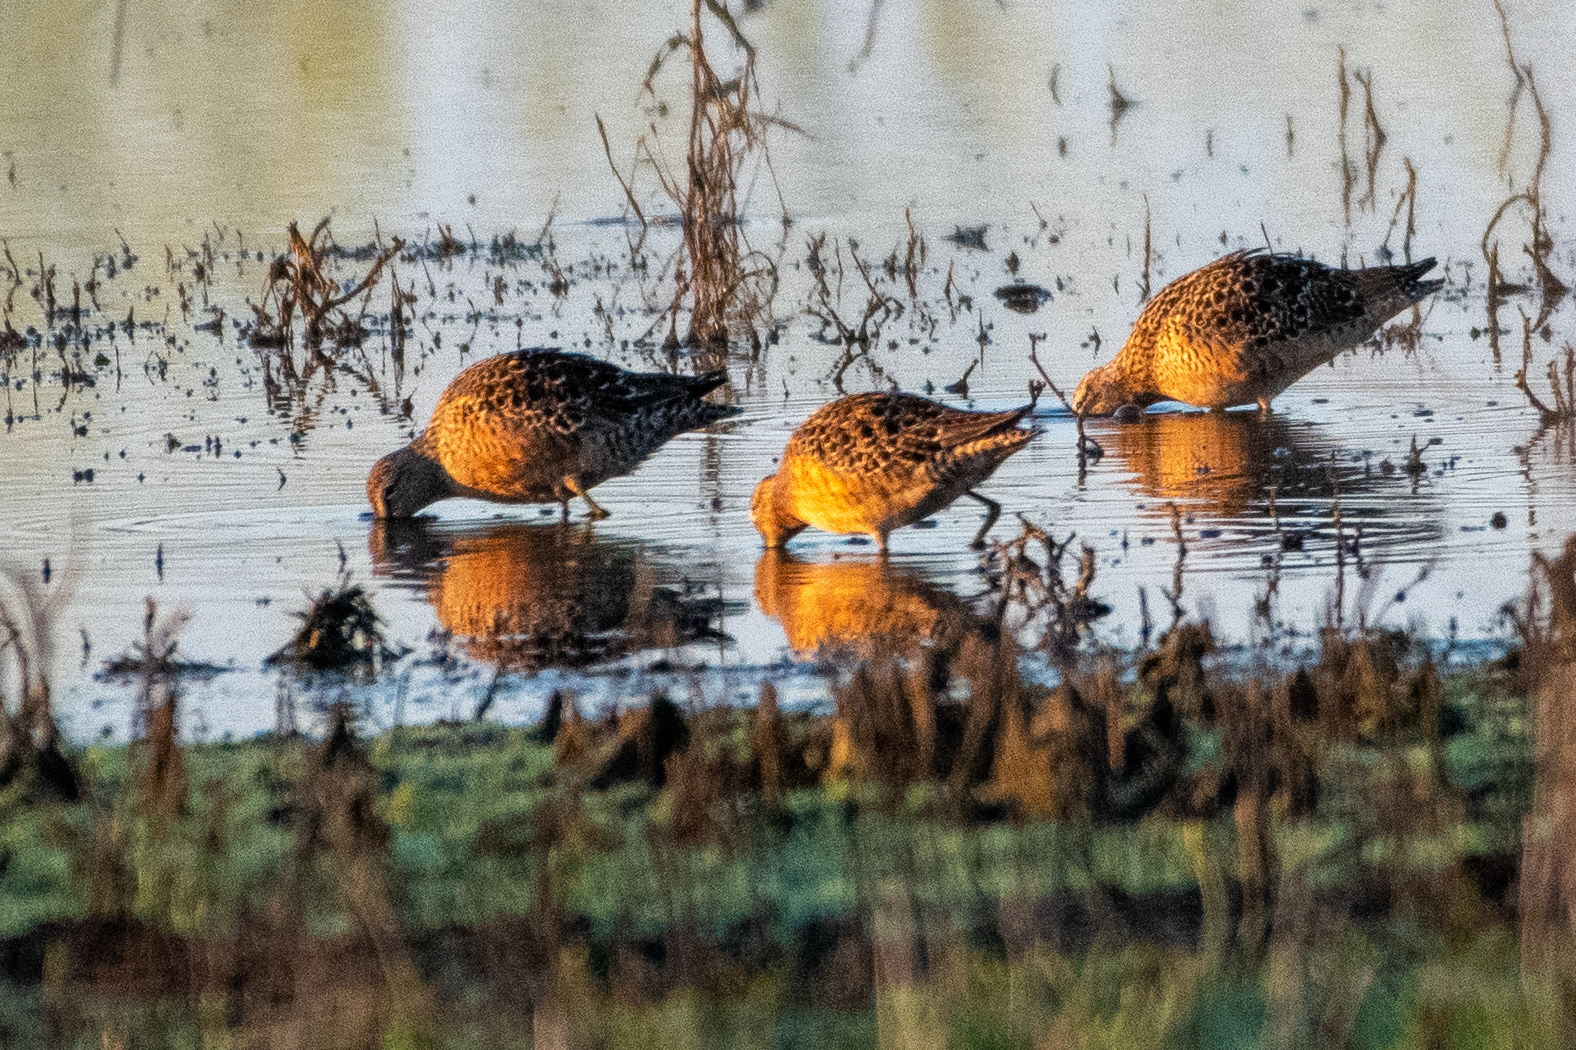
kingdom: Animalia
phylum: Chordata
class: Aves
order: Charadriiformes
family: Scolopacidae
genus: Limnodromus
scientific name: Limnodromus scolopaceus
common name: Long-billed dowitcher
